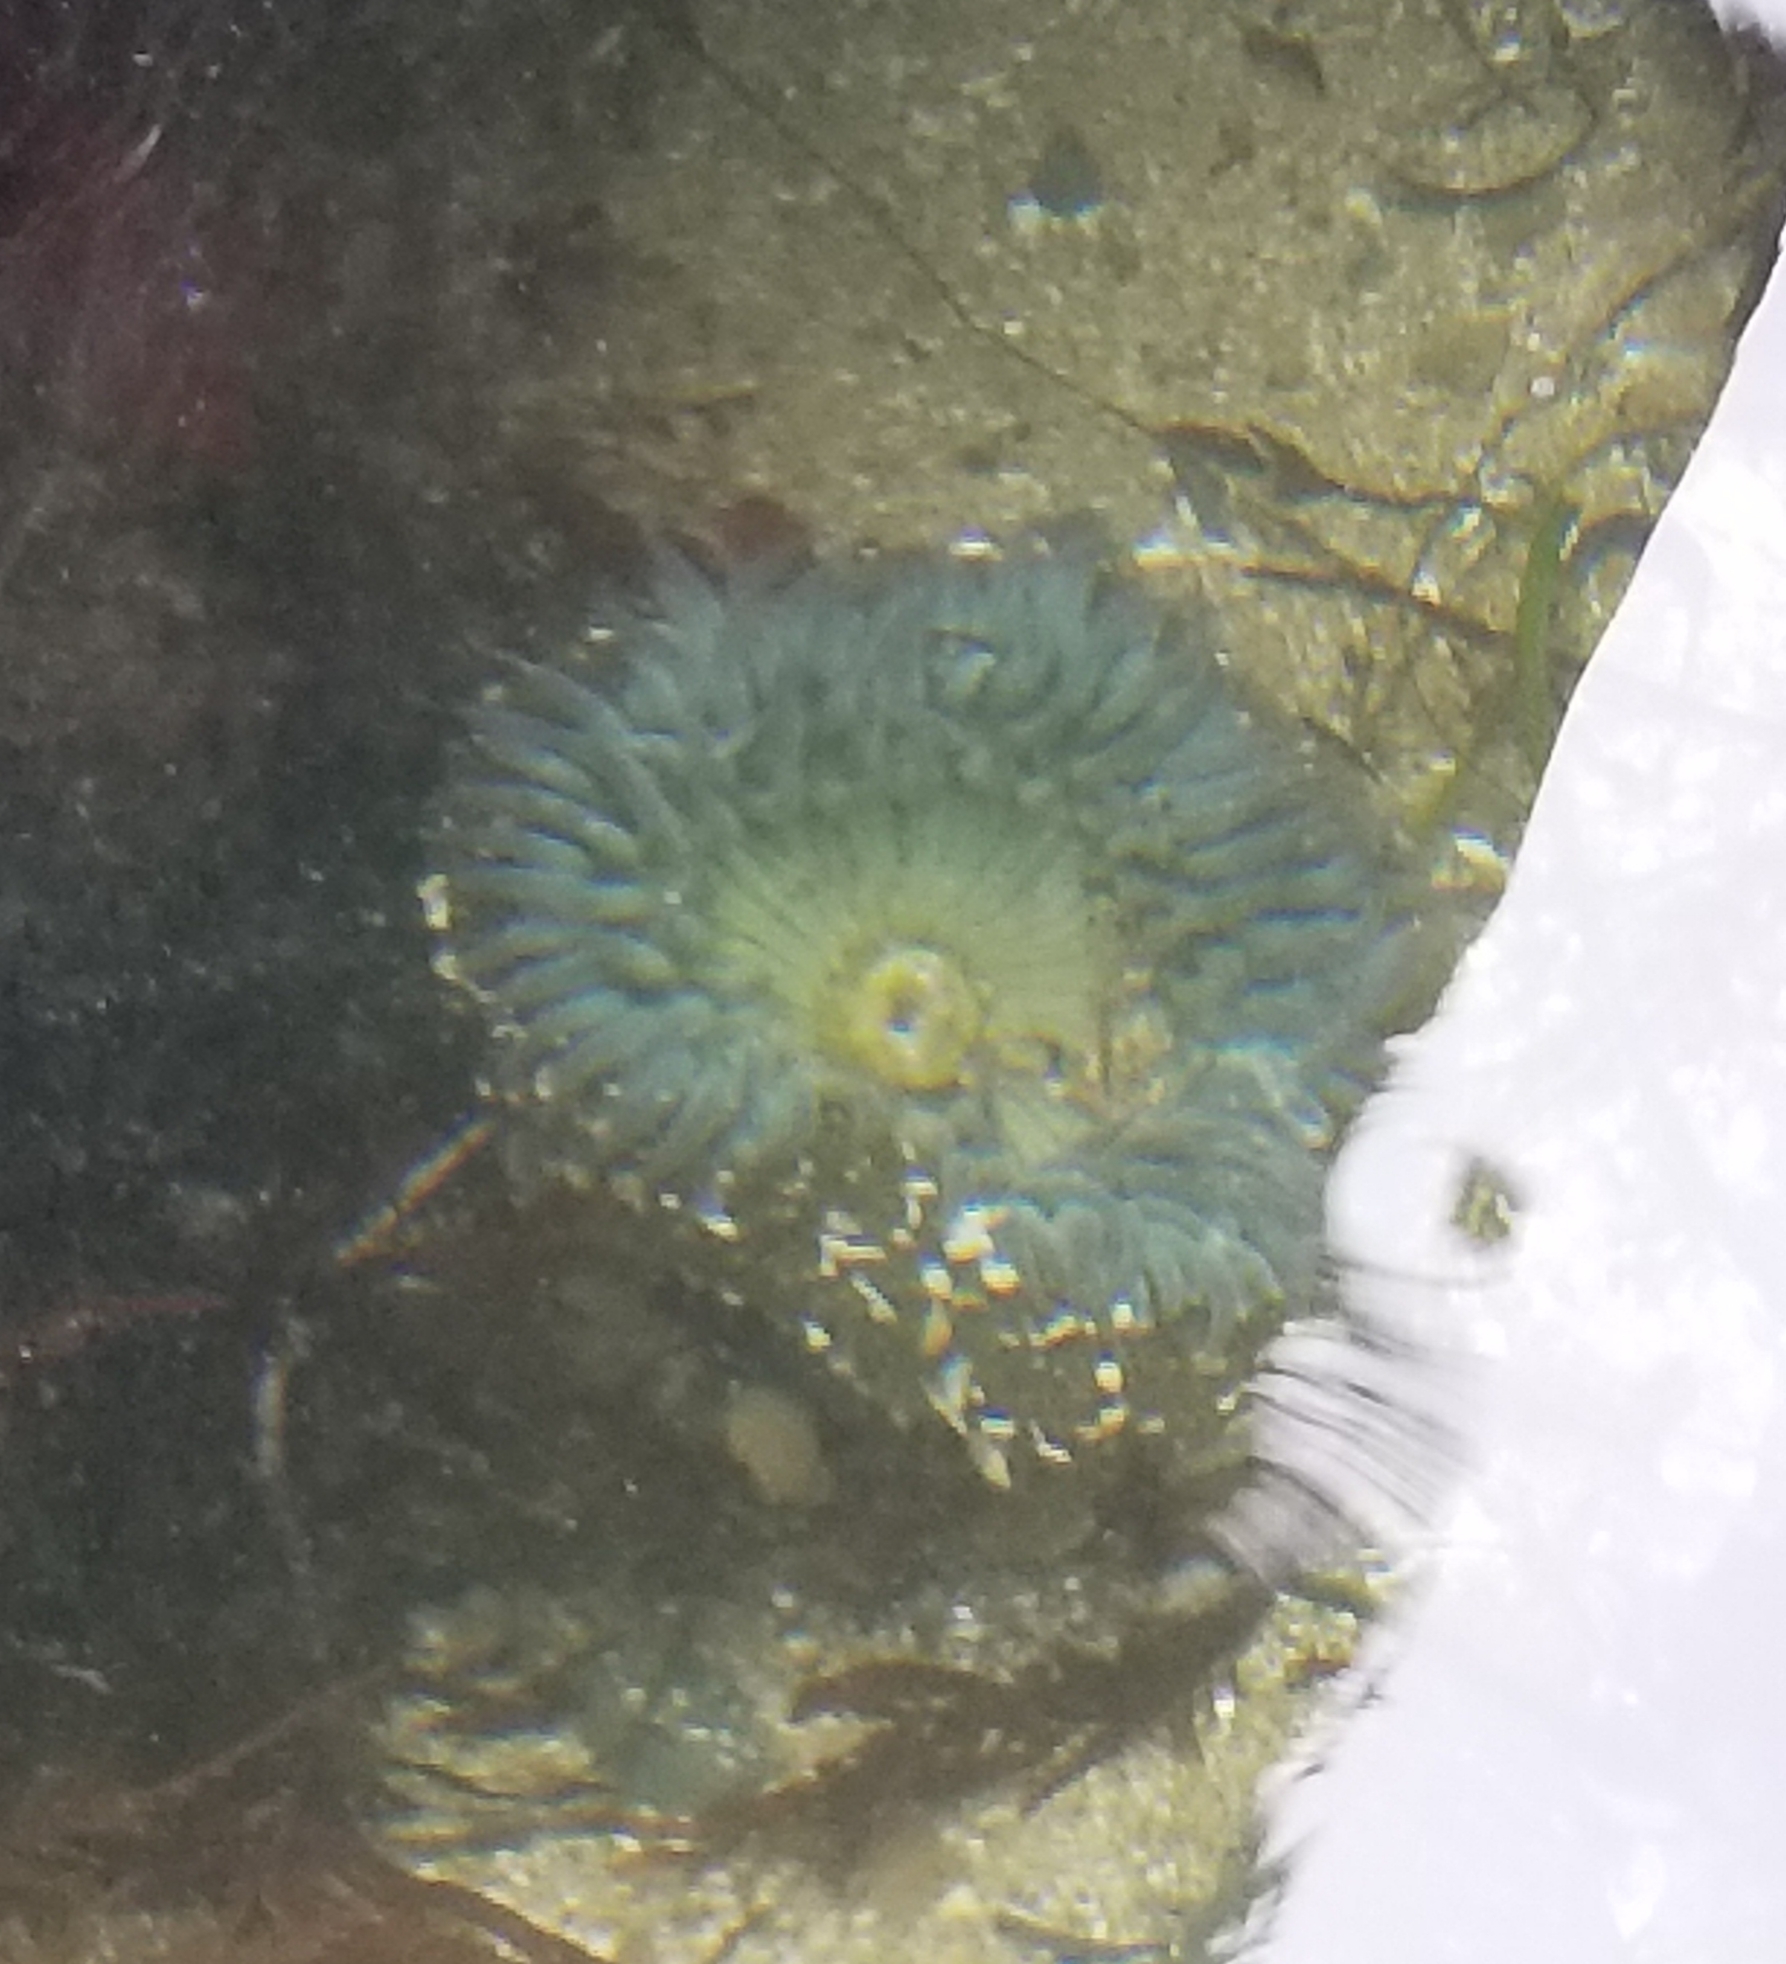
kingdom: Animalia
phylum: Cnidaria
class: Anthozoa
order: Actiniaria
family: Actiniidae
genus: Anthopleura
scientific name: Anthopleura sola
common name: Sun anemone
